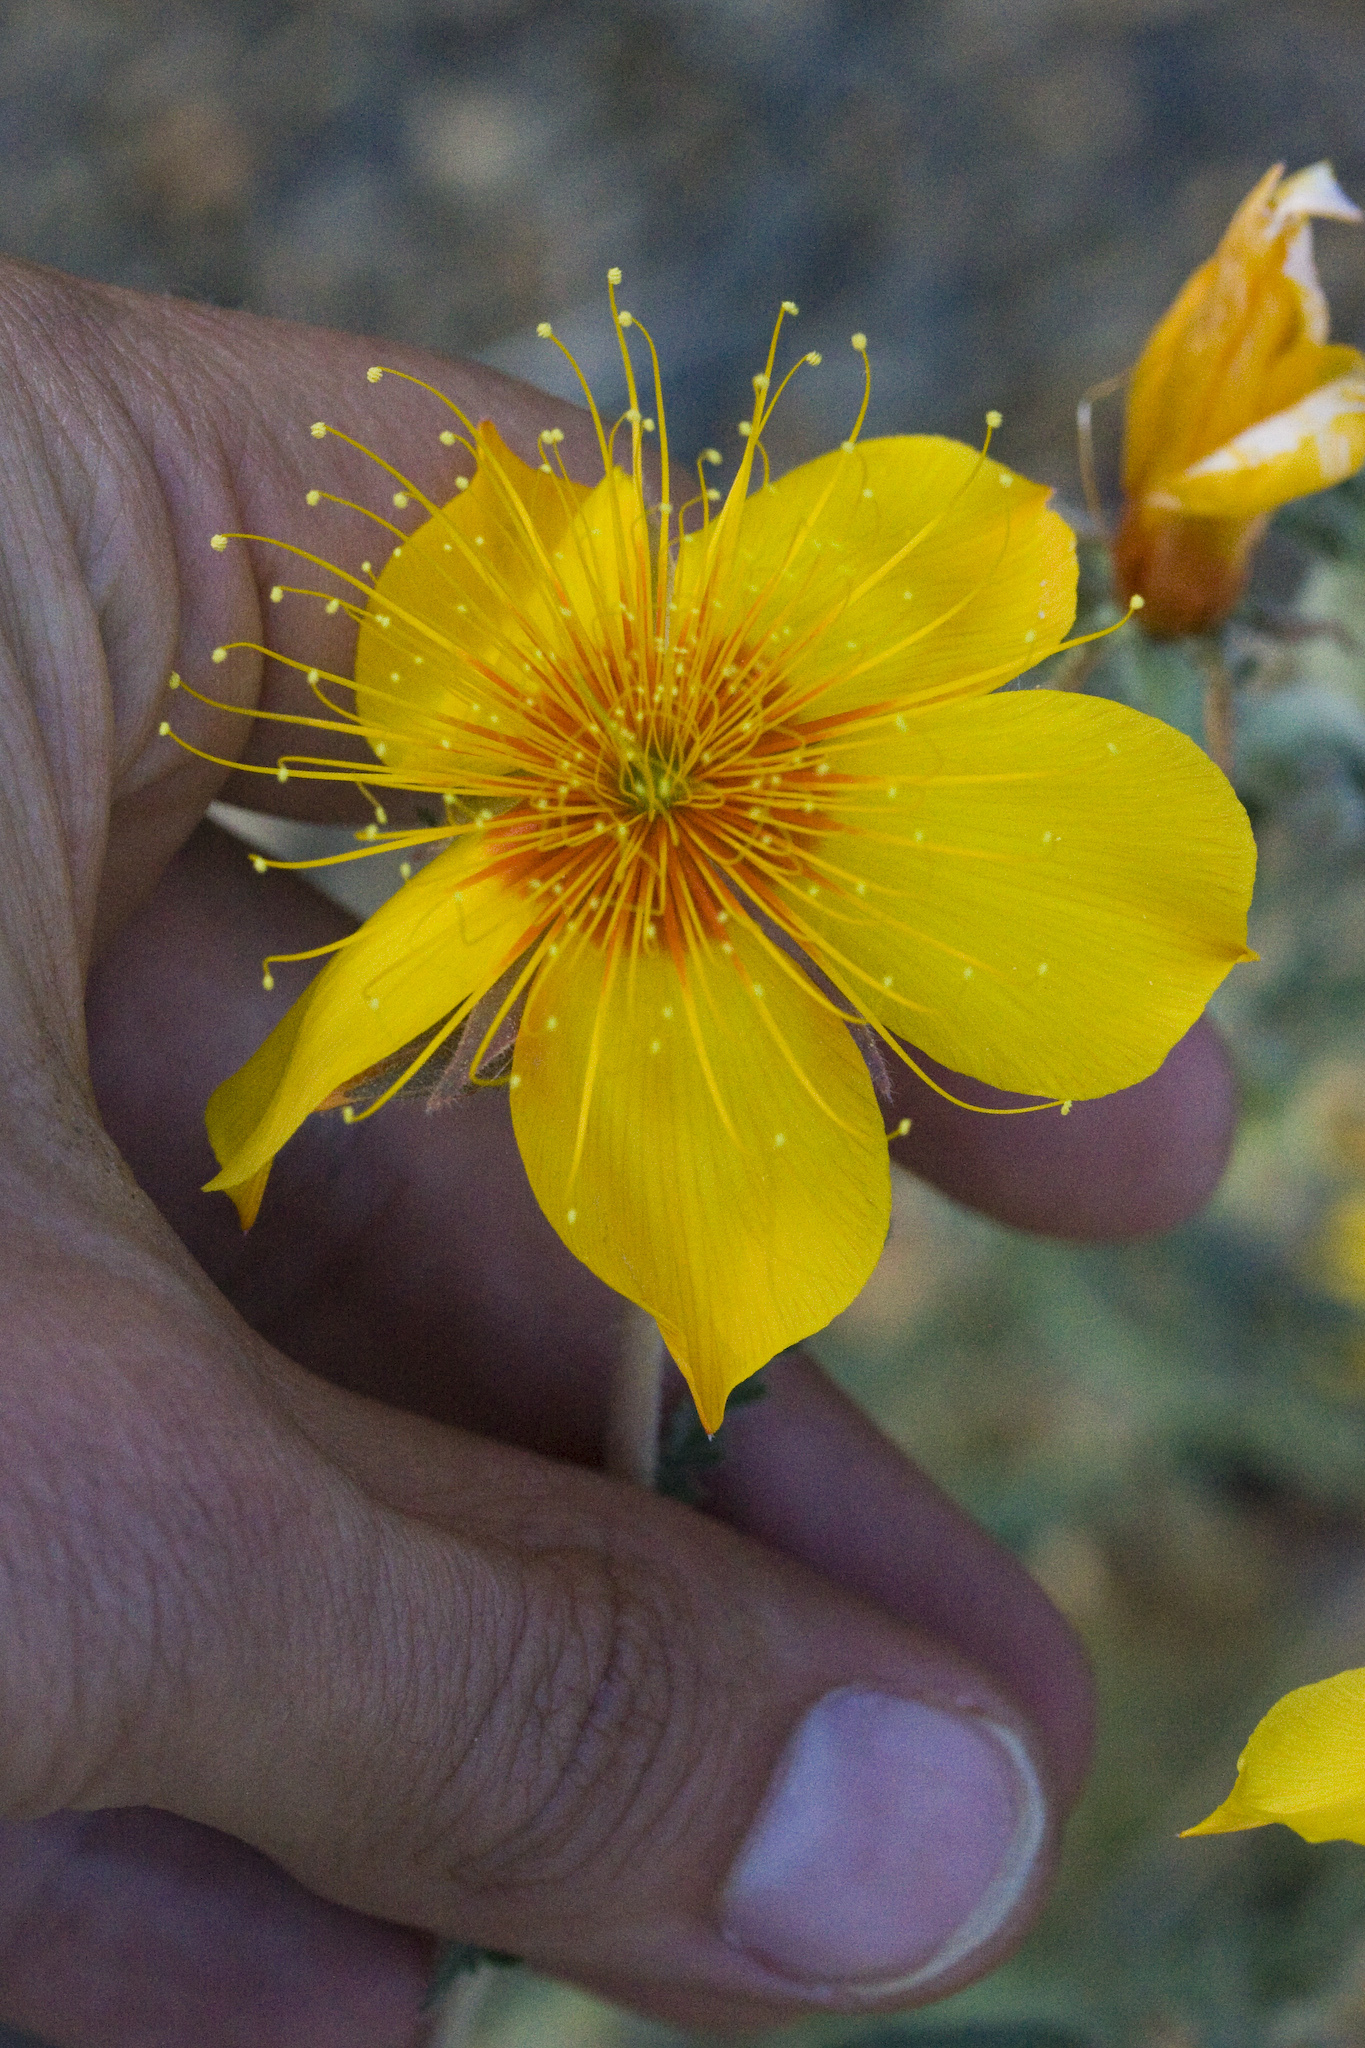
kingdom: Plantae
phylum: Tracheophyta
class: Magnoliopsida
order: Cornales
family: Loasaceae
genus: Mentzelia
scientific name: Mentzelia lindleyi
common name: Golden bartonia
